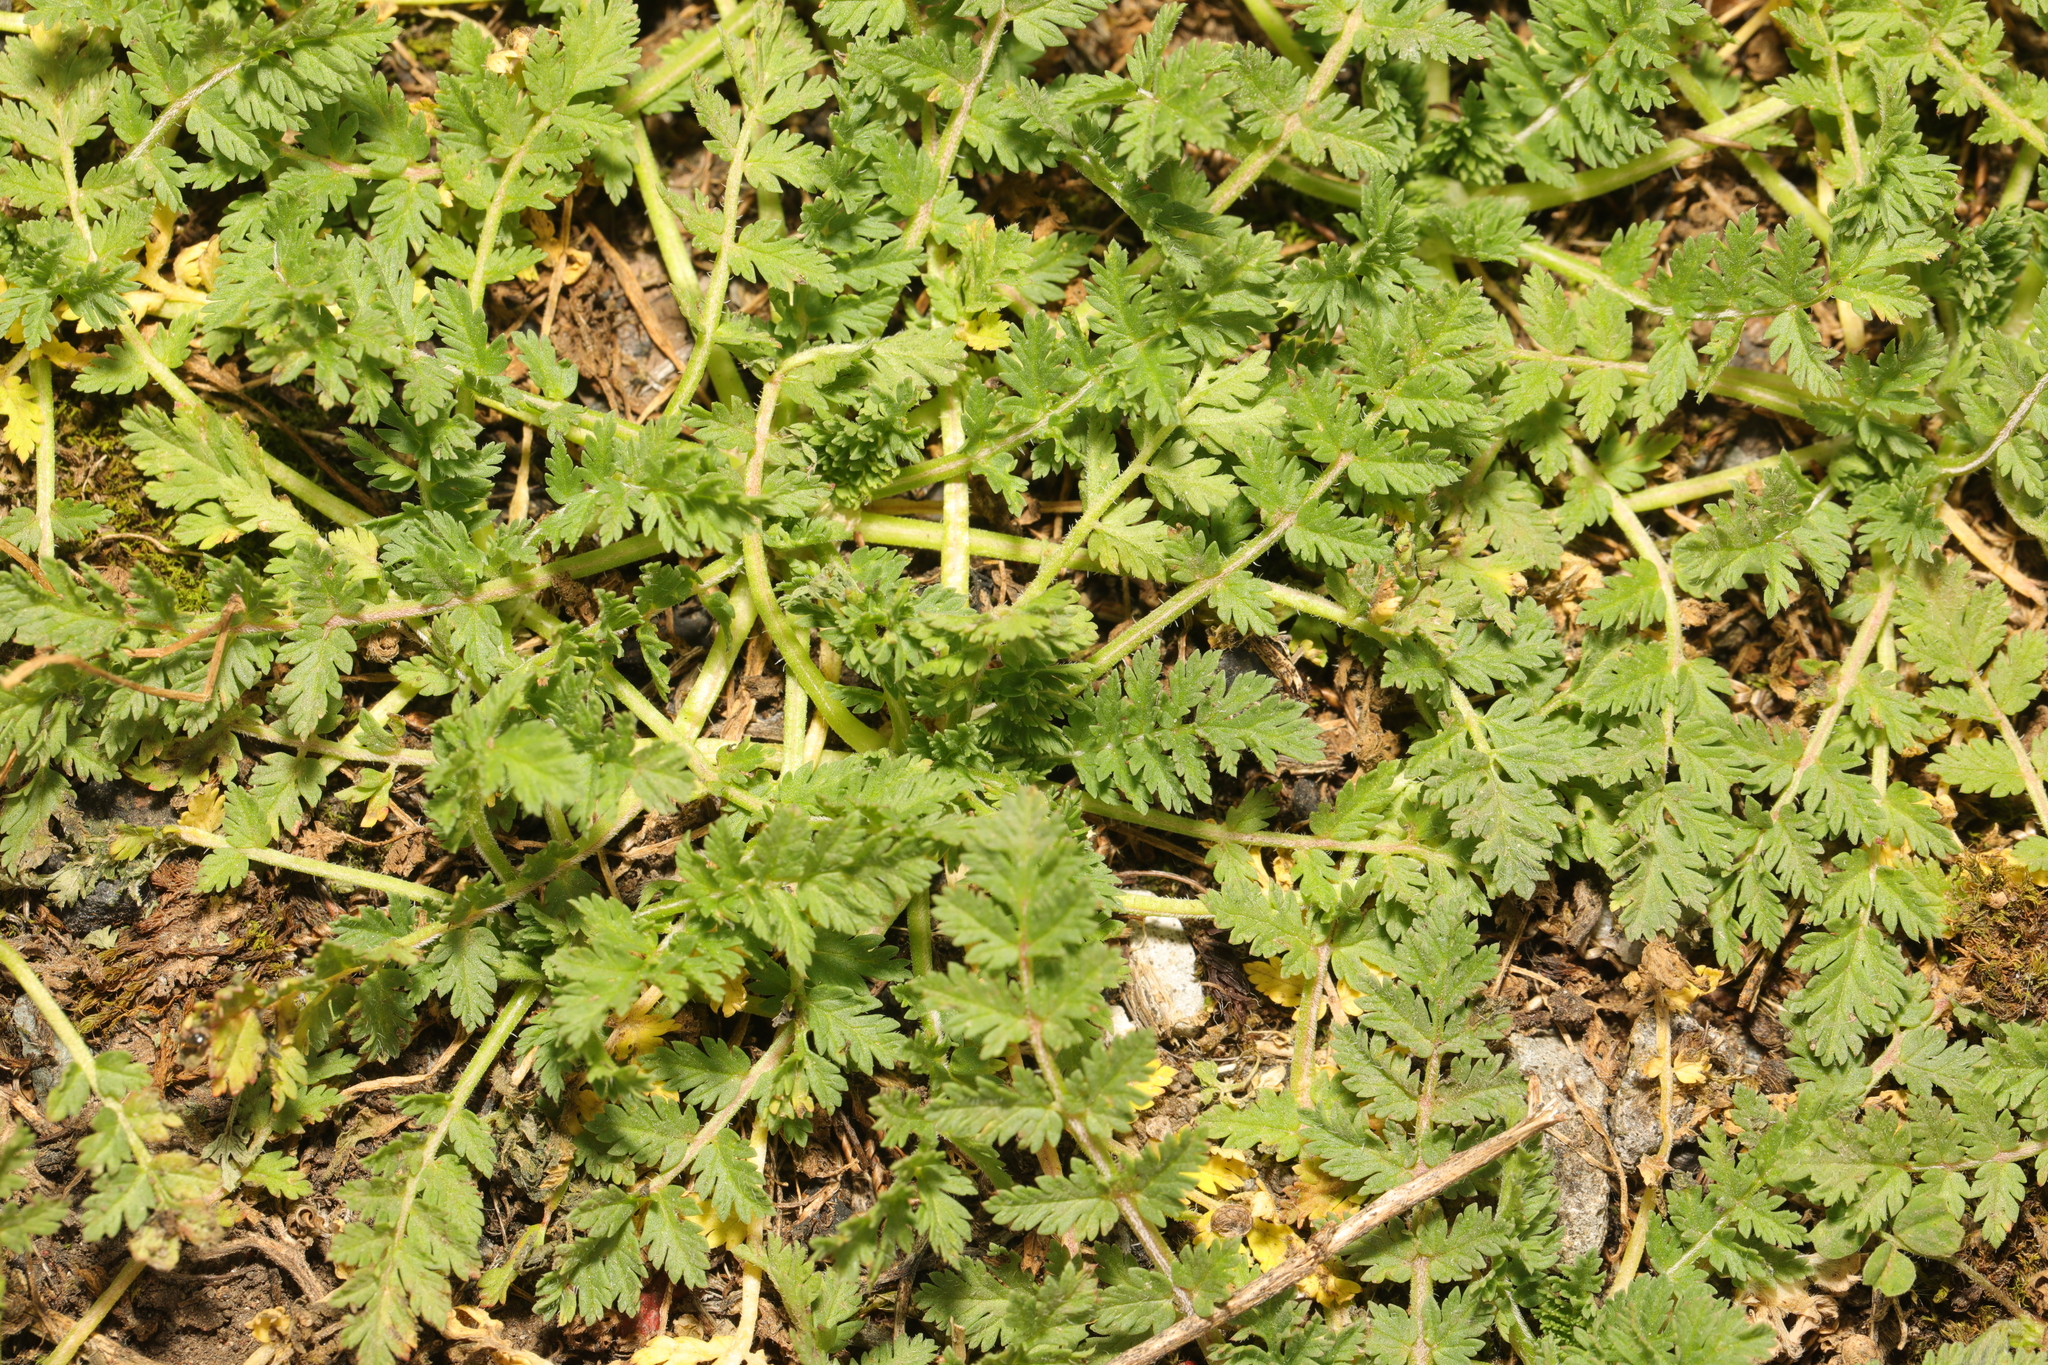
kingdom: Plantae
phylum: Tracheophyta
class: Magnoliopsida
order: Geraniales
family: Geraniaceae
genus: Erodium
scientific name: Erodium cicutarium
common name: Common stork's-bill
